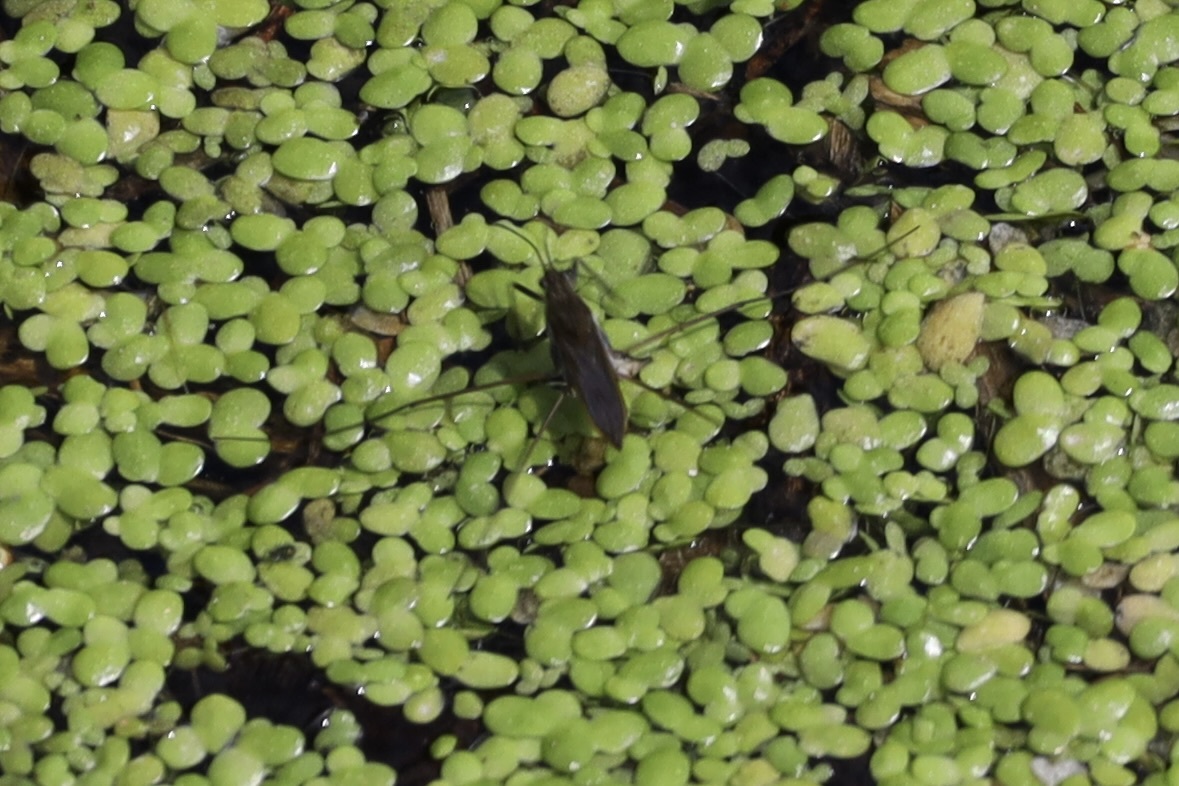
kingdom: Animalia
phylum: Arthropoda
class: Insecta
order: Hemiptera
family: Gerridae
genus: Gerris
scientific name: Gerris
